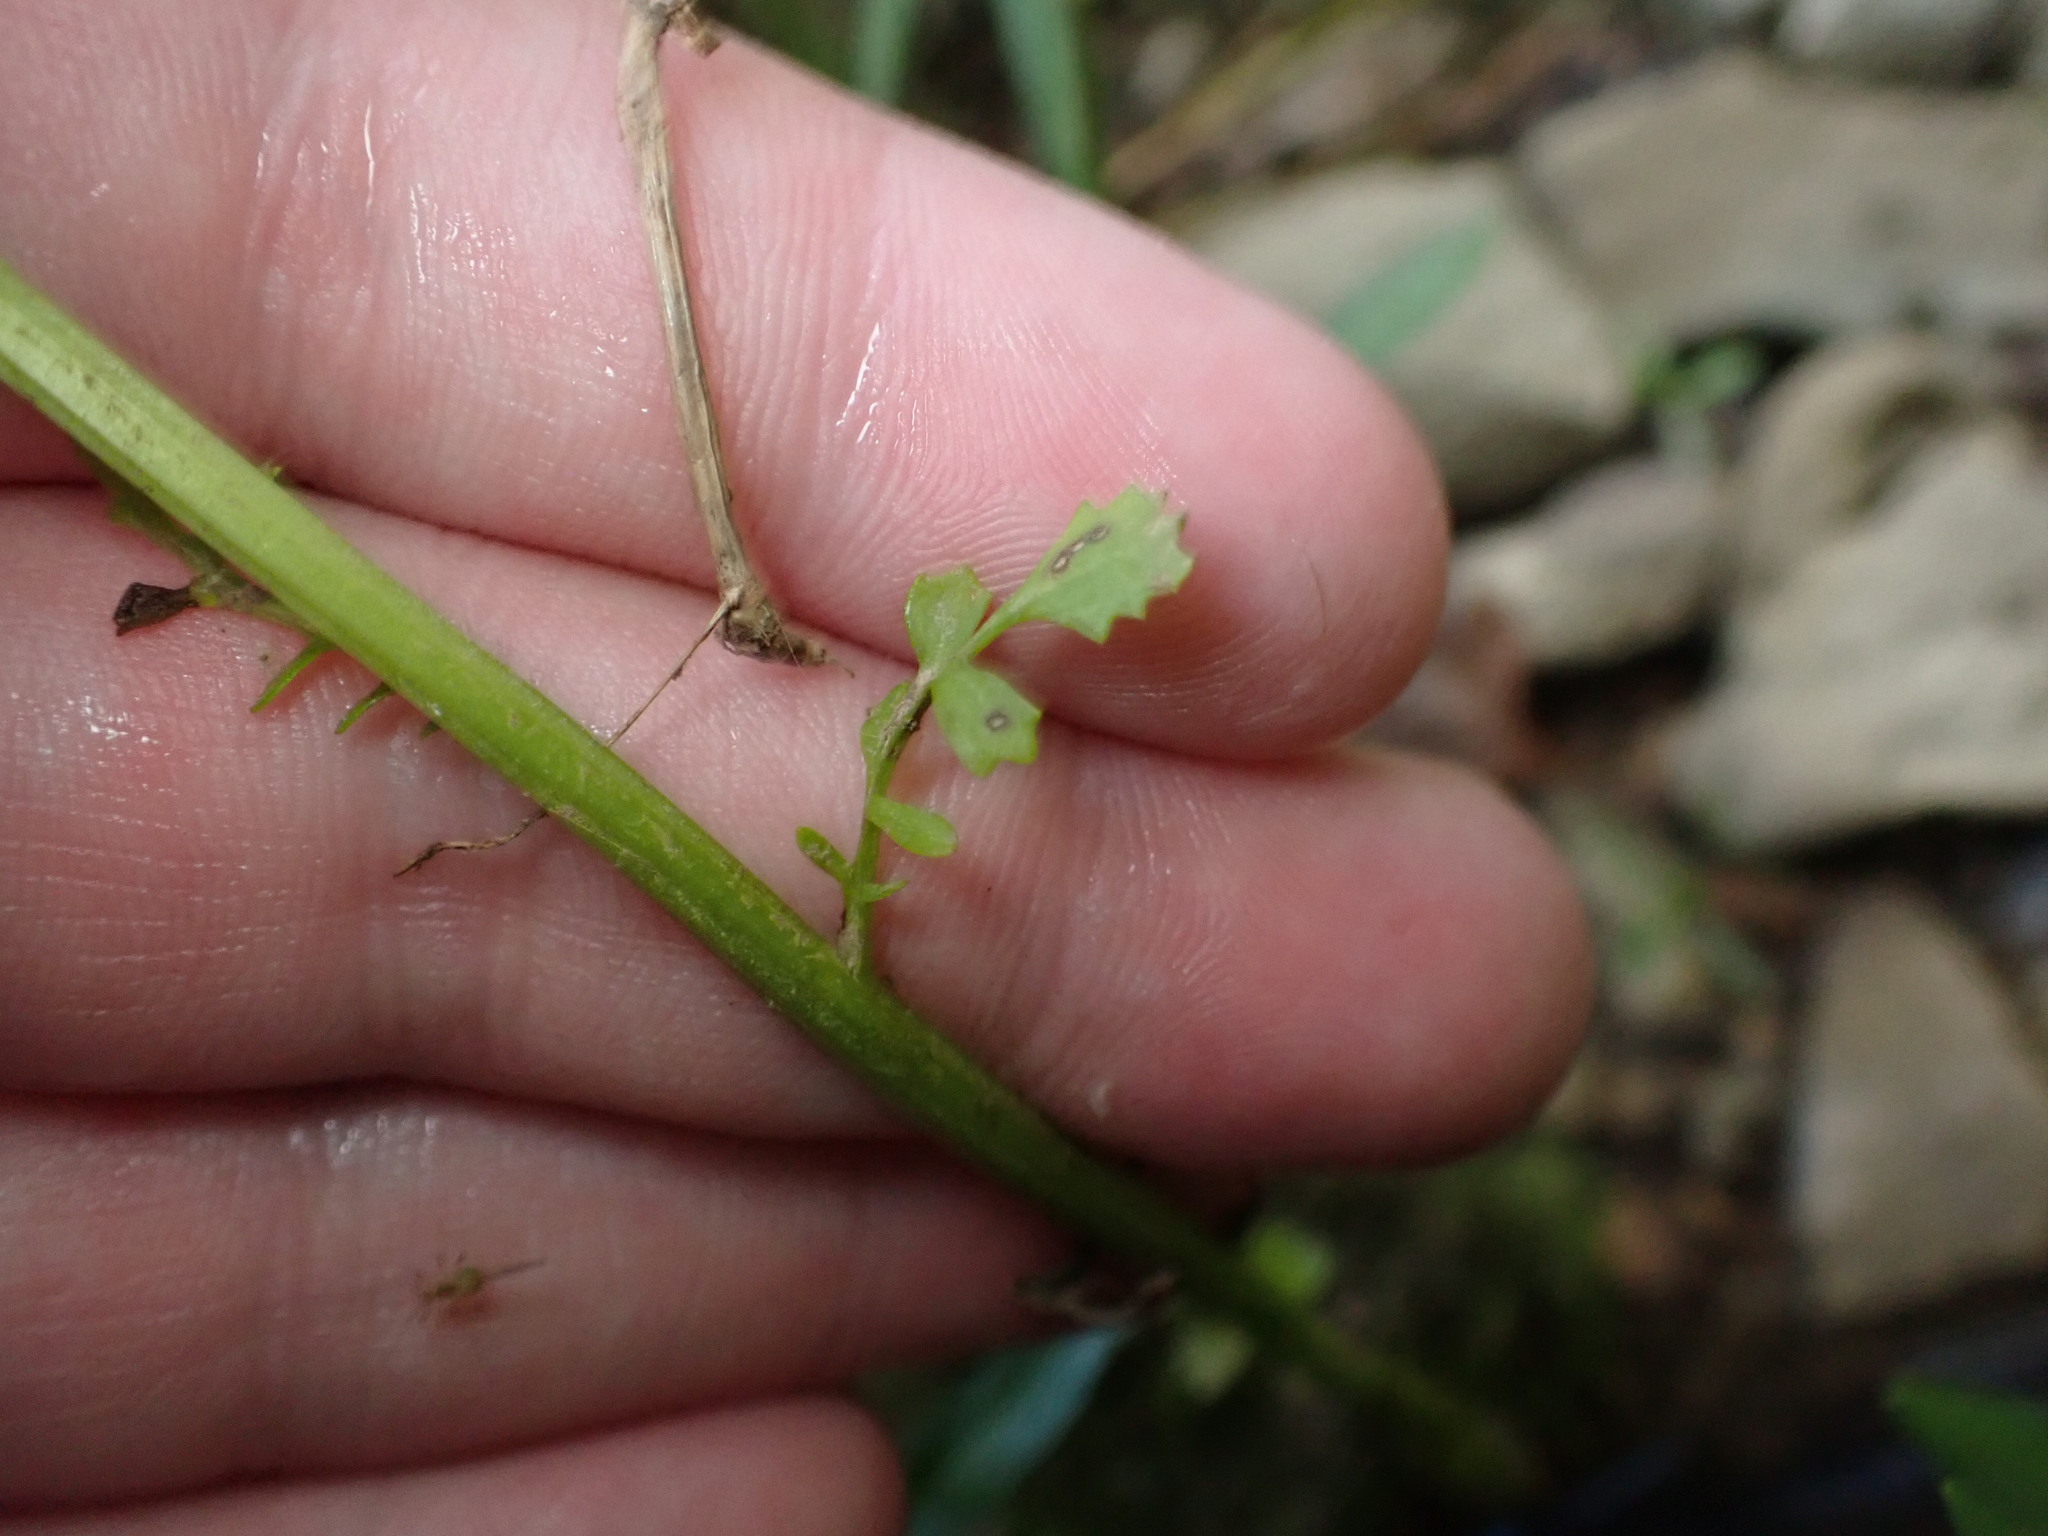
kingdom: Plantae
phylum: Tracheophyta
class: Magnoliopsida
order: Asterales
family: Asteraceae
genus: Packera
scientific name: Packera glabella
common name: Butterweed
